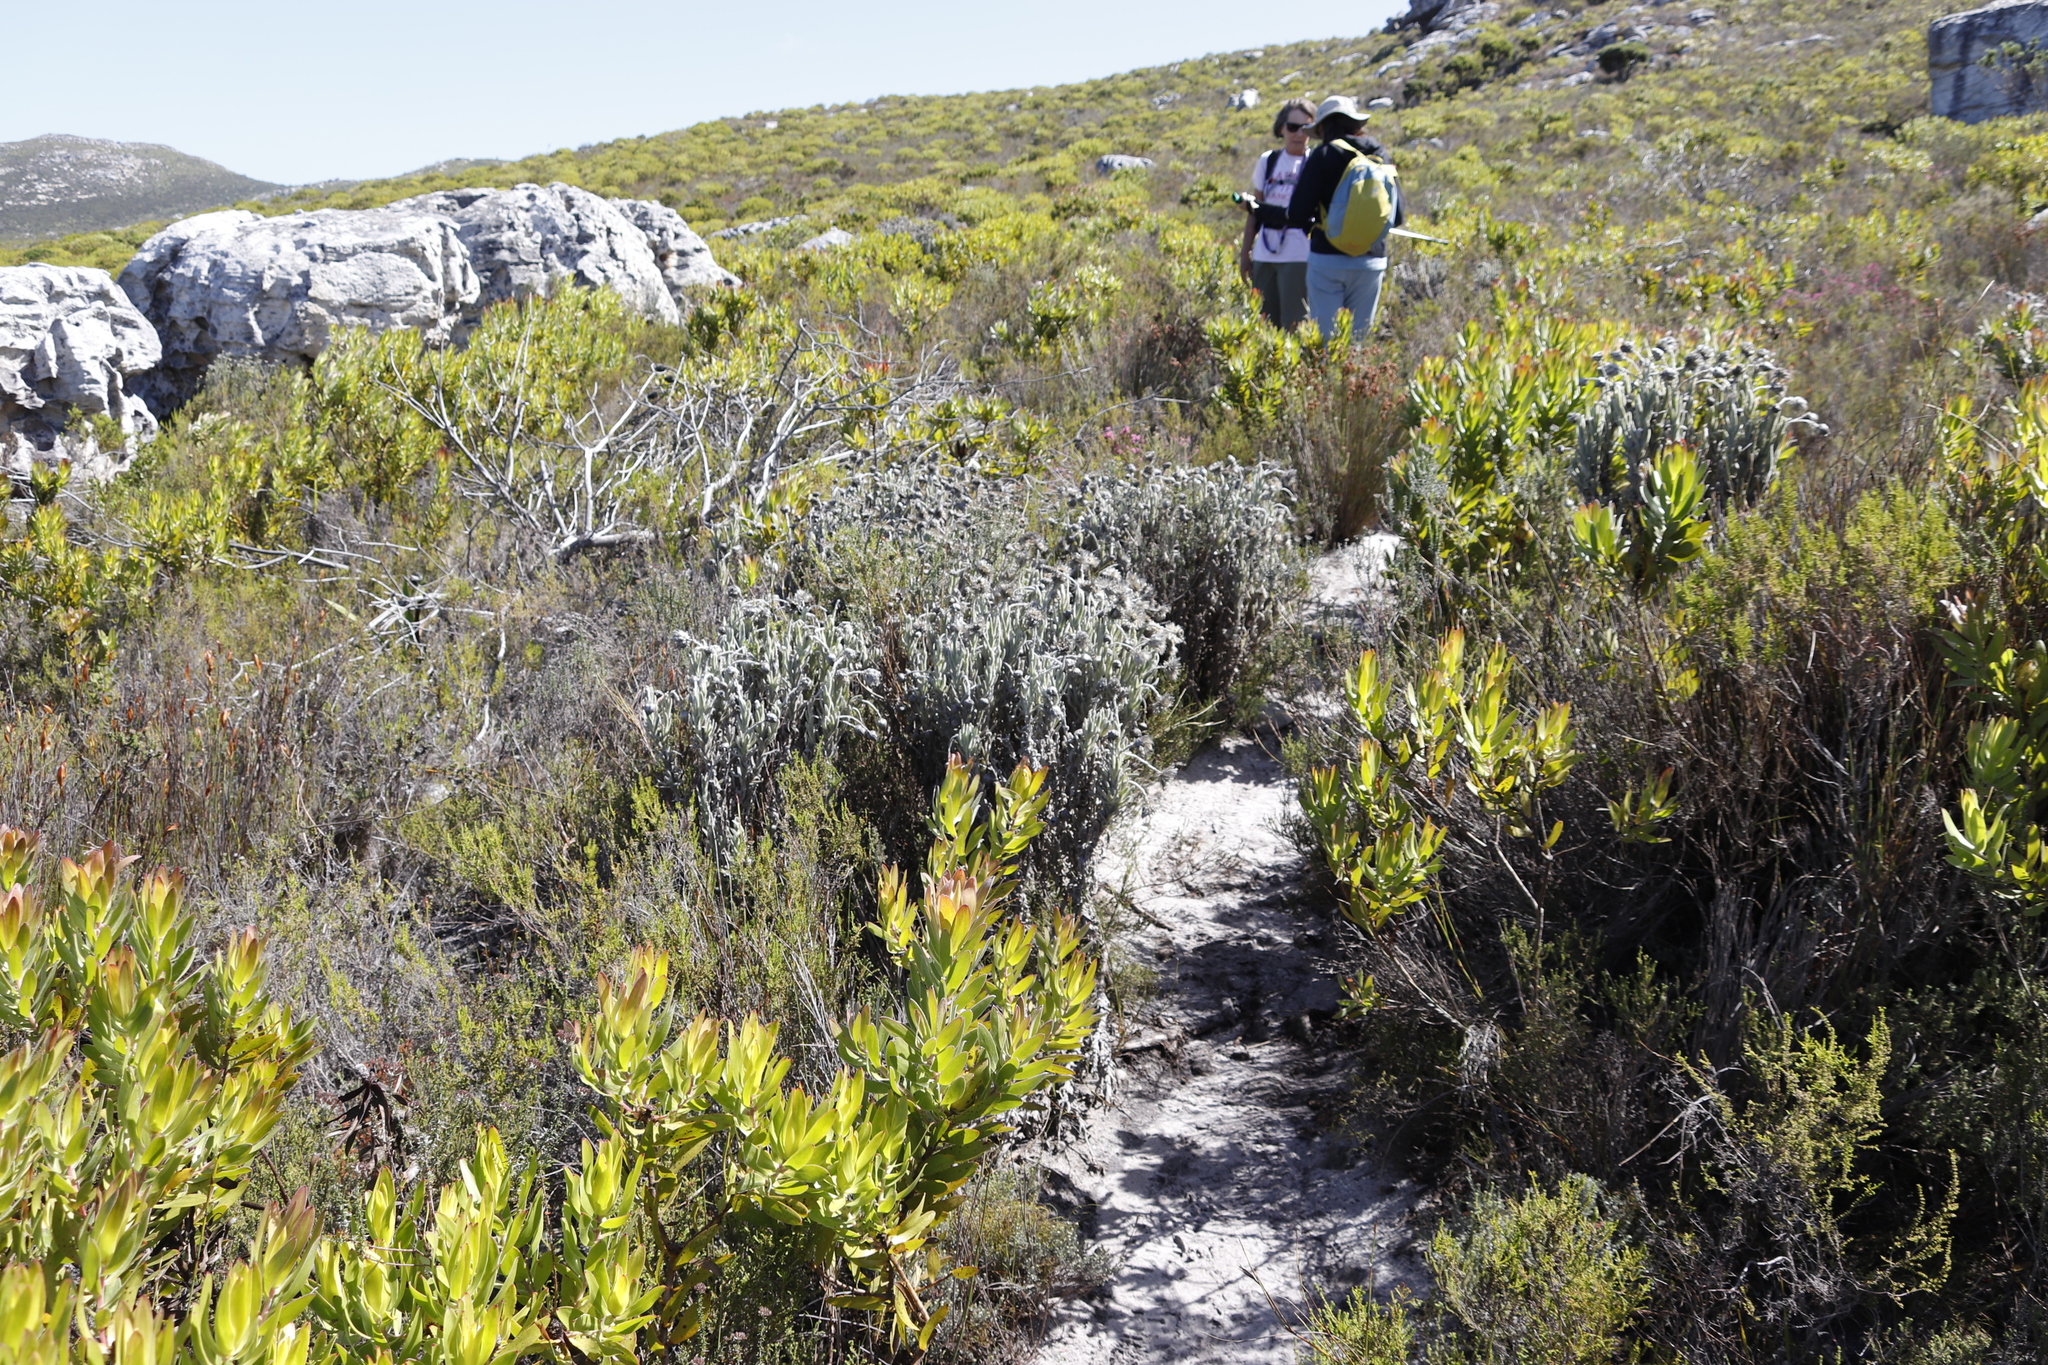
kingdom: Plantae
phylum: Tracheophyta
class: Magnoliopsida
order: Asterales
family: Asteraceae
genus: Syncarpha
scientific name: Syncarpha vestita
